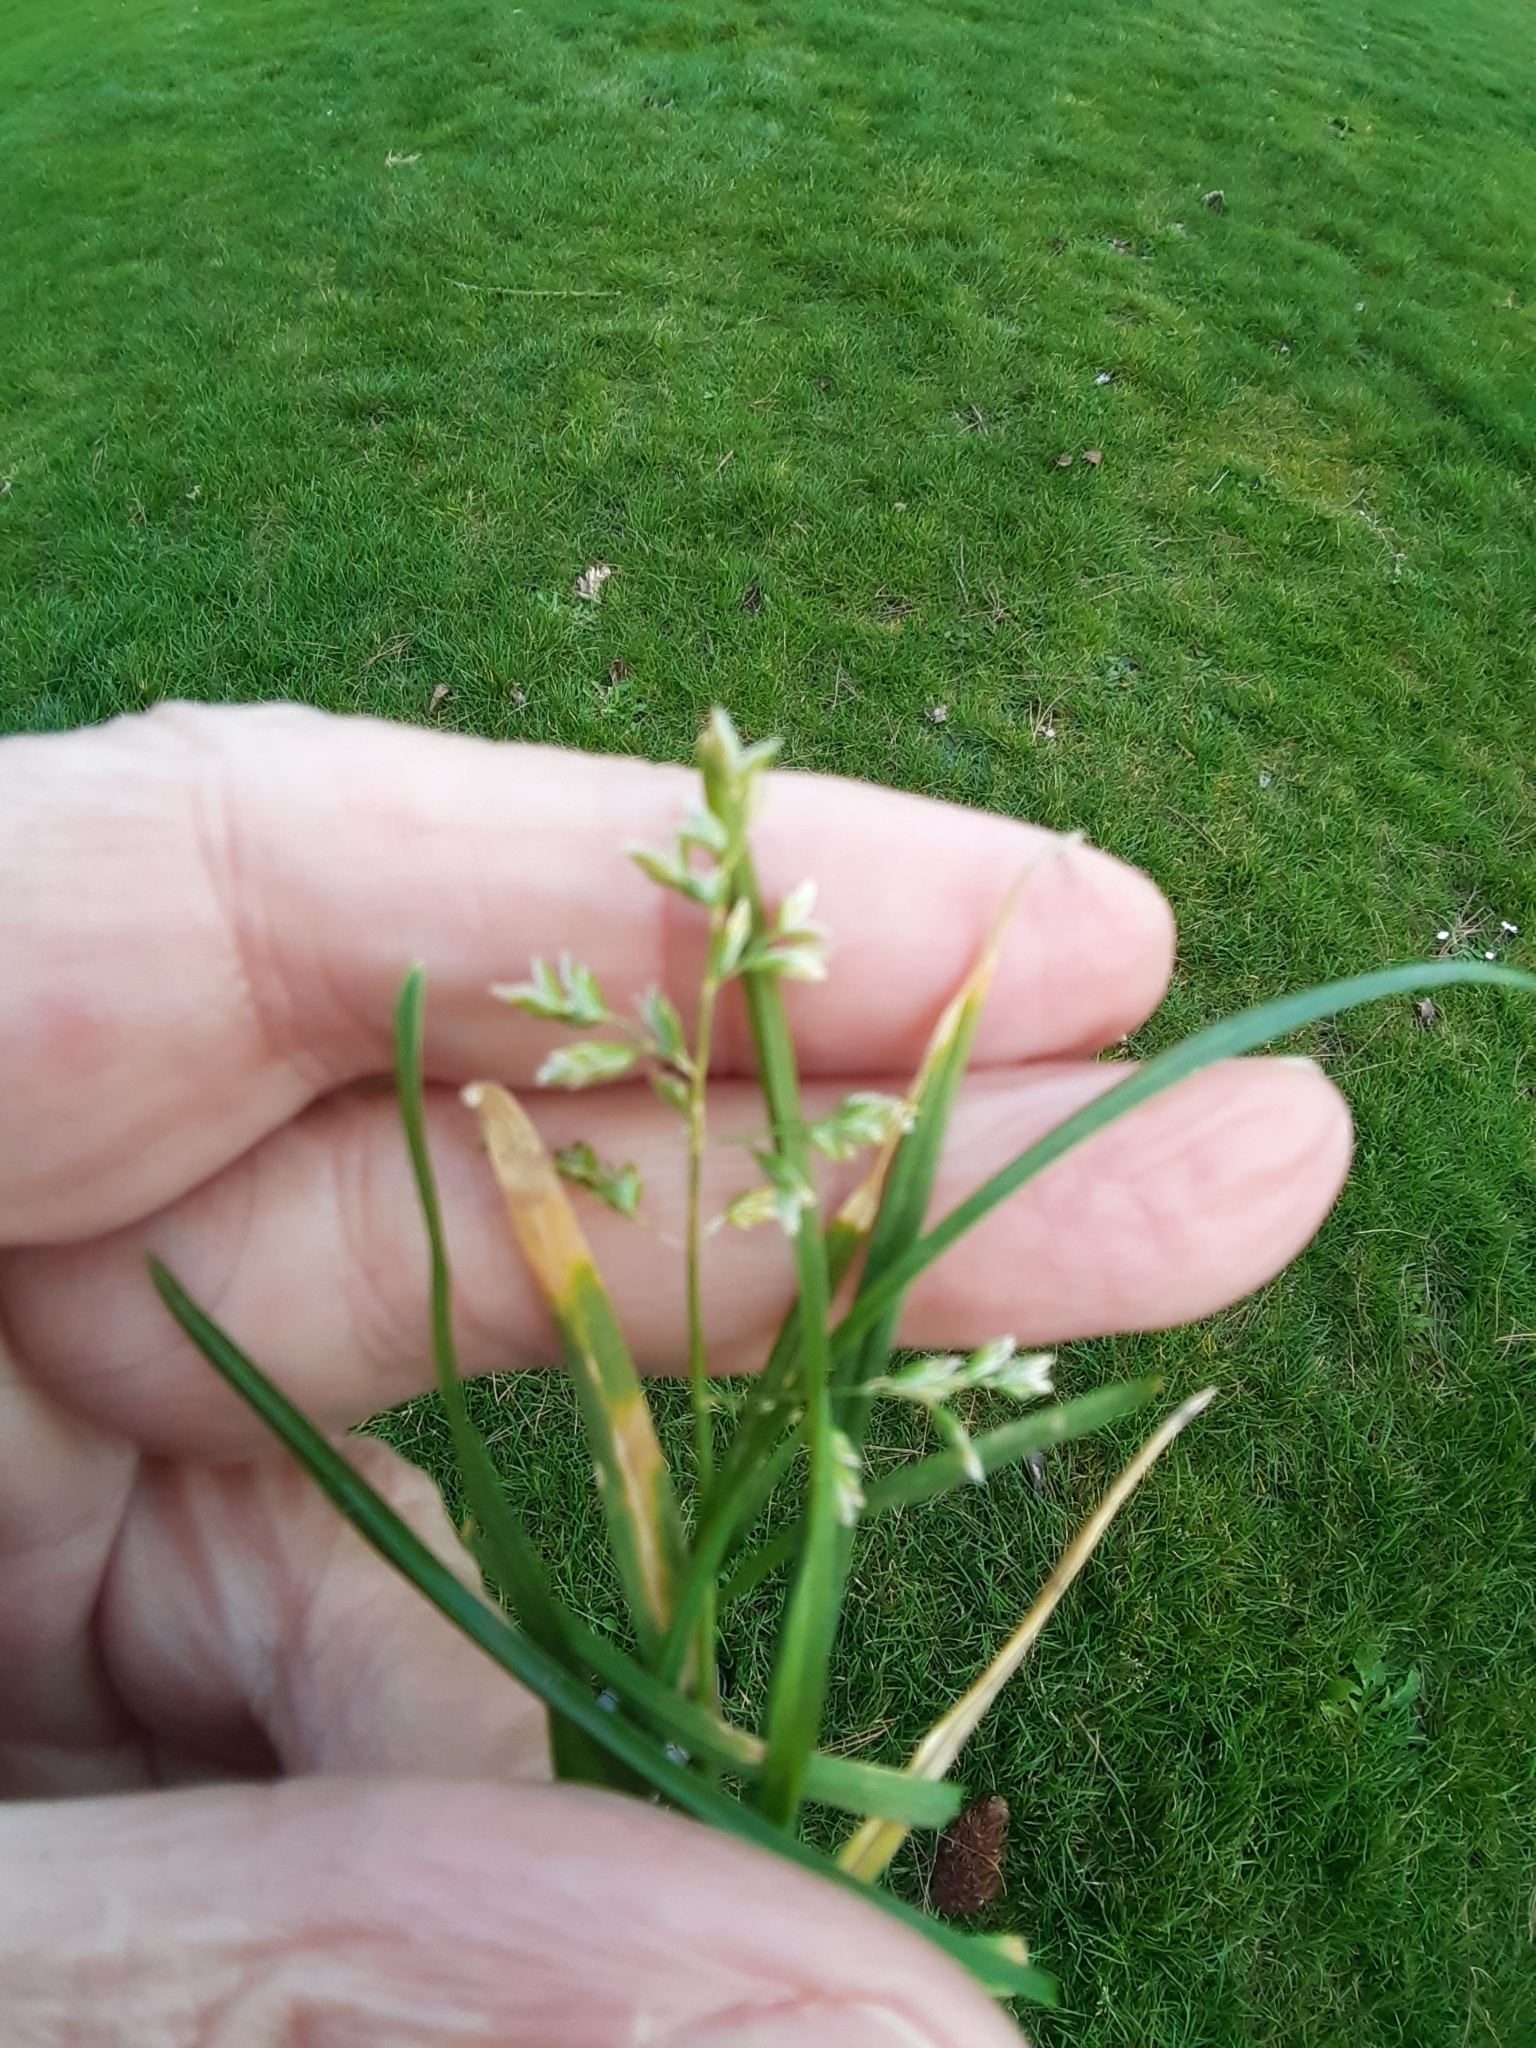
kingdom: Plantae
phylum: Tracheophyta
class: Liliopsida
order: Poales
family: Poaceae
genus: Poa
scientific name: Poa annua
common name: Annual bluegrass
